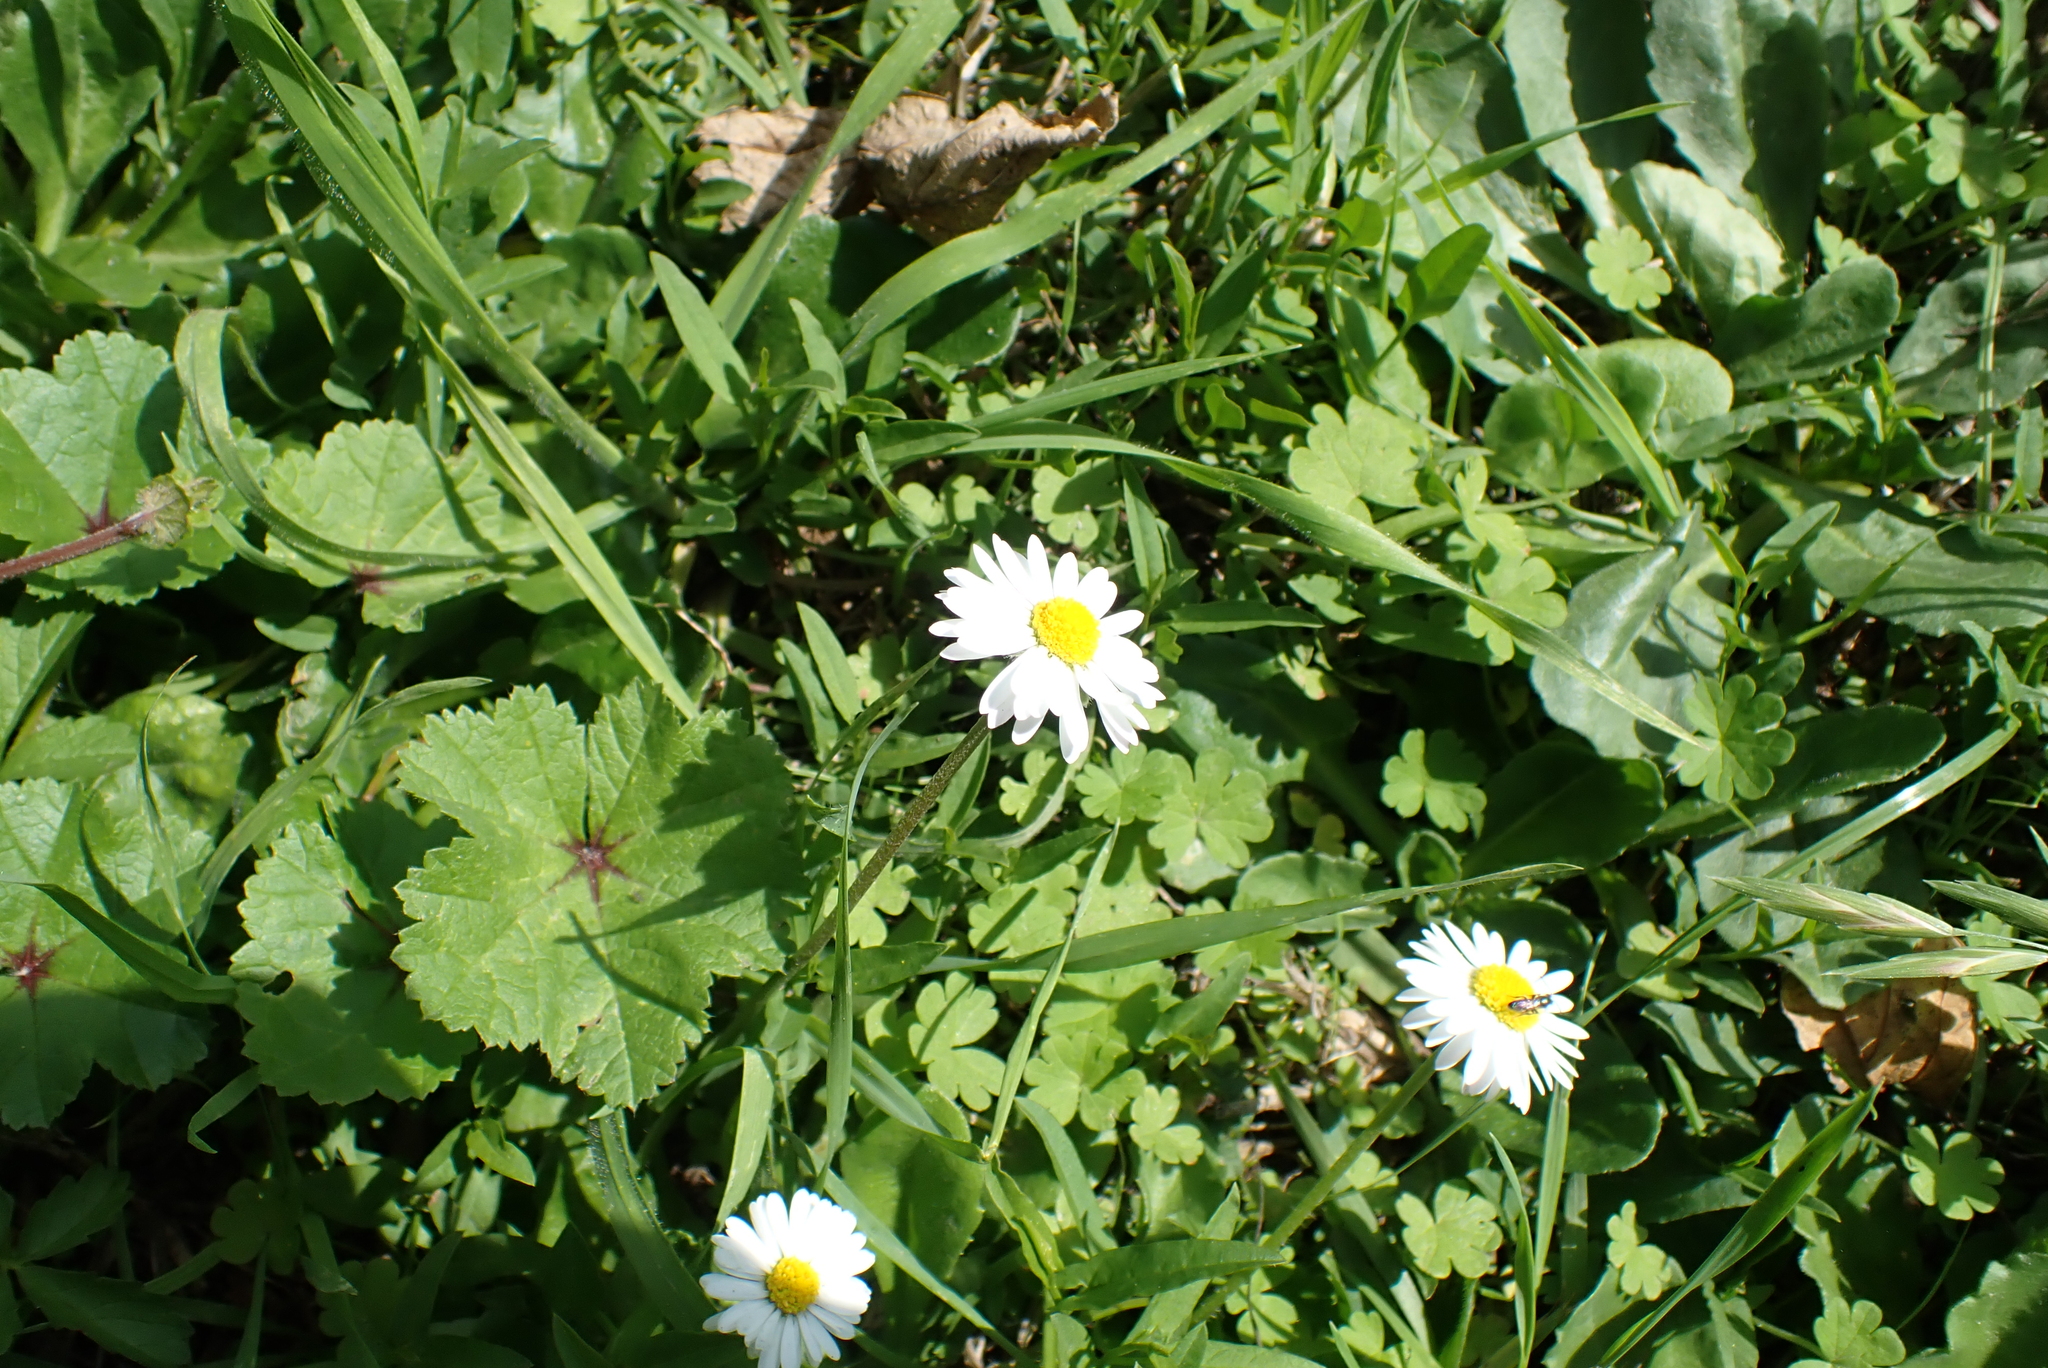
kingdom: Plantae
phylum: Tracheophyta
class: Magnoliopsida
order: Asterales
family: Asteraceae
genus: Bellis
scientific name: Bellis perennis
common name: Lawndaisy
